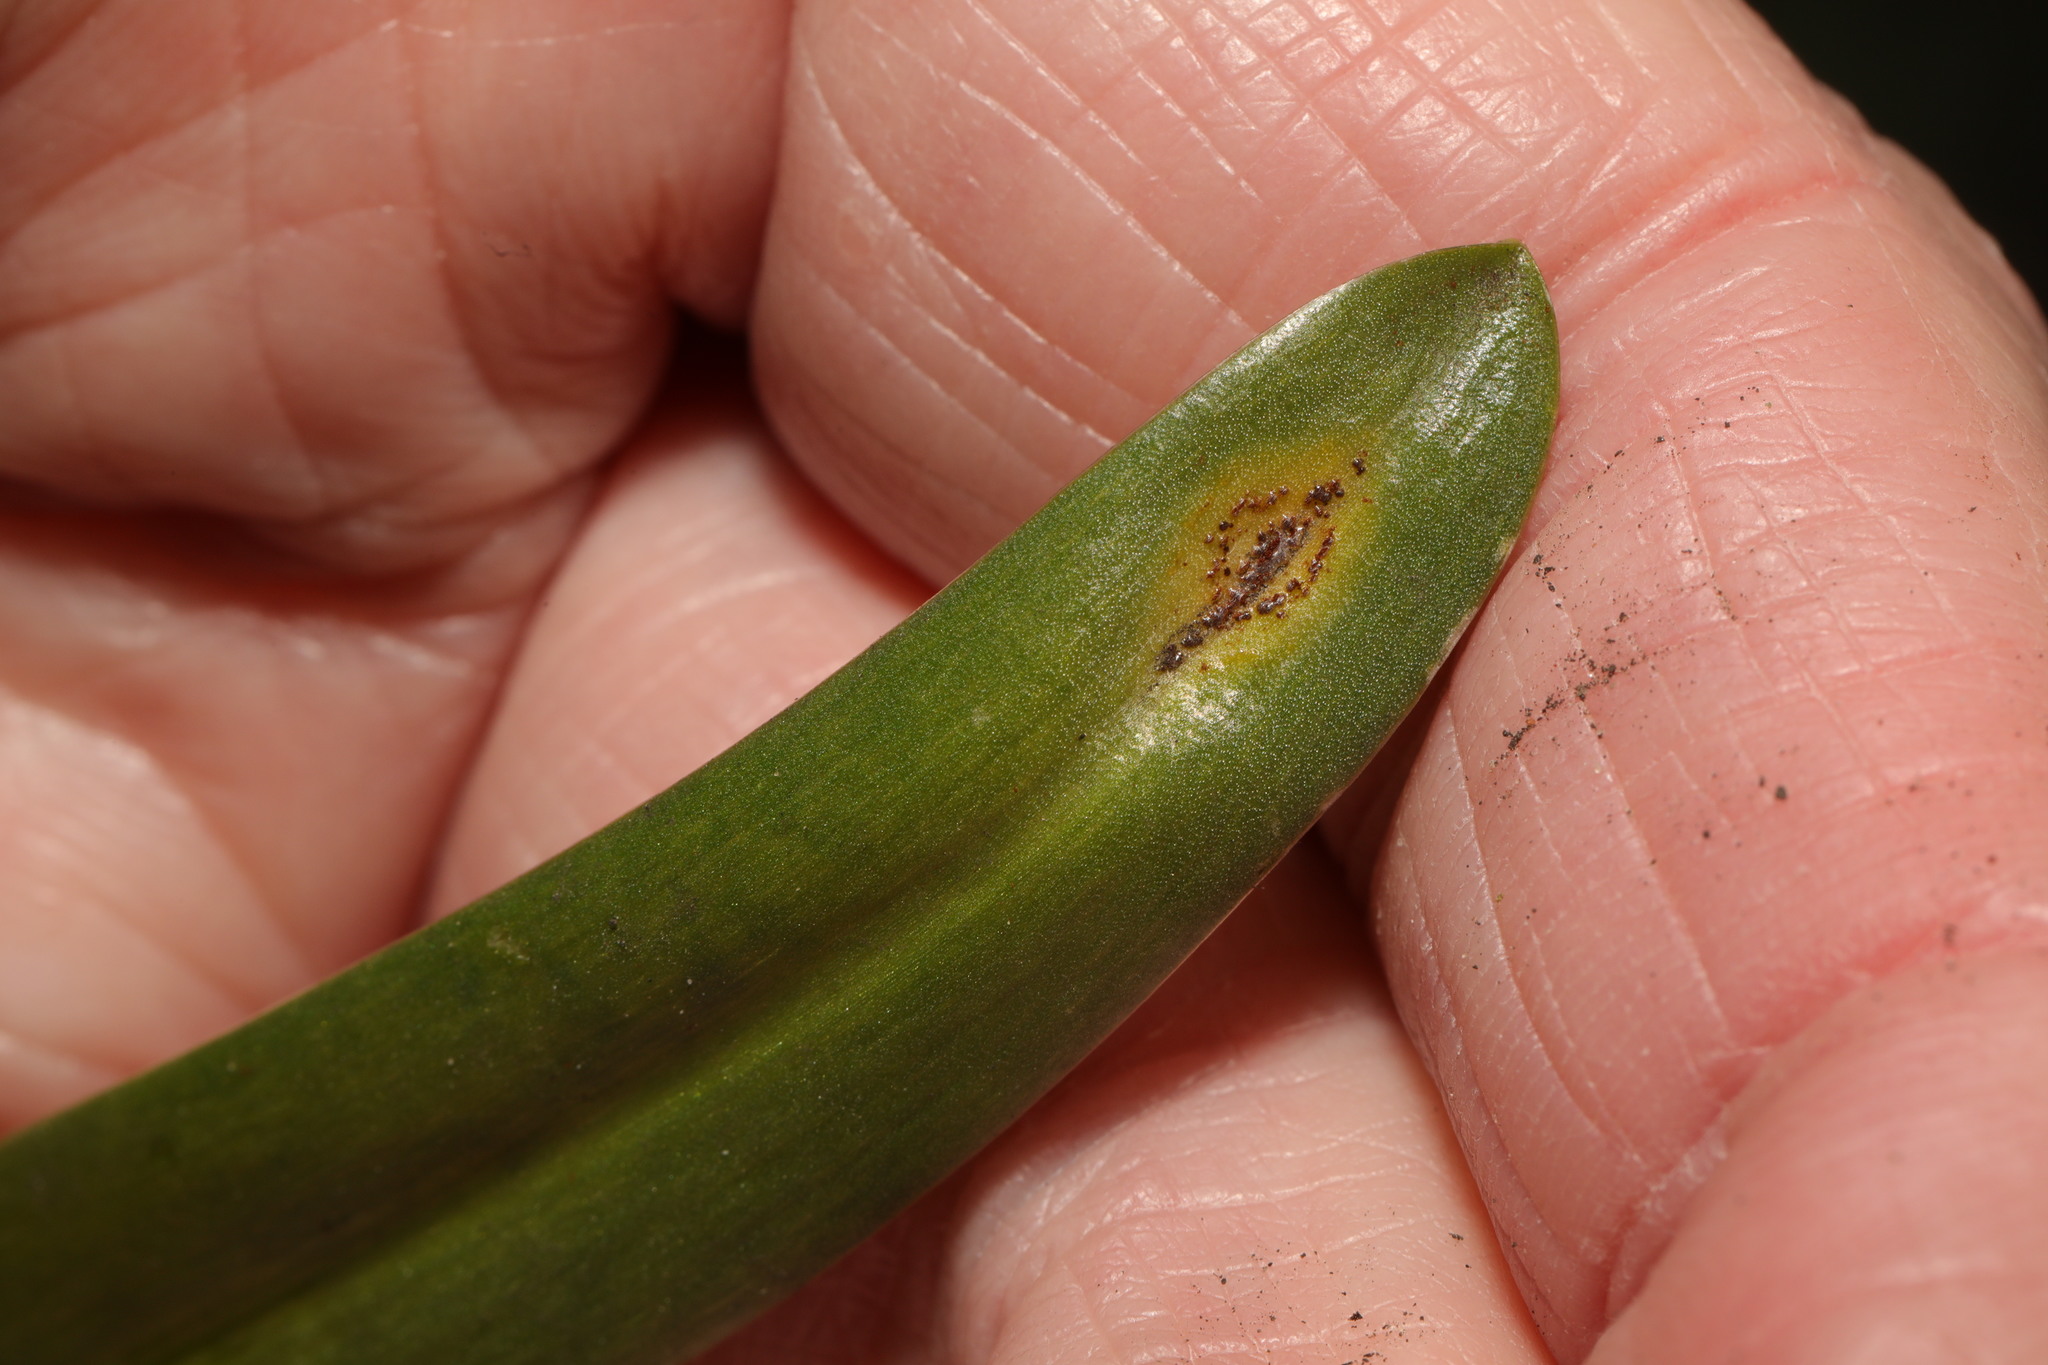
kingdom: Fungi
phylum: Basidiomycota
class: Pucciniomycetes
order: Pucciniales
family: Pucciniaceae
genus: Uromyces
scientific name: Uromyces hyacinthi
